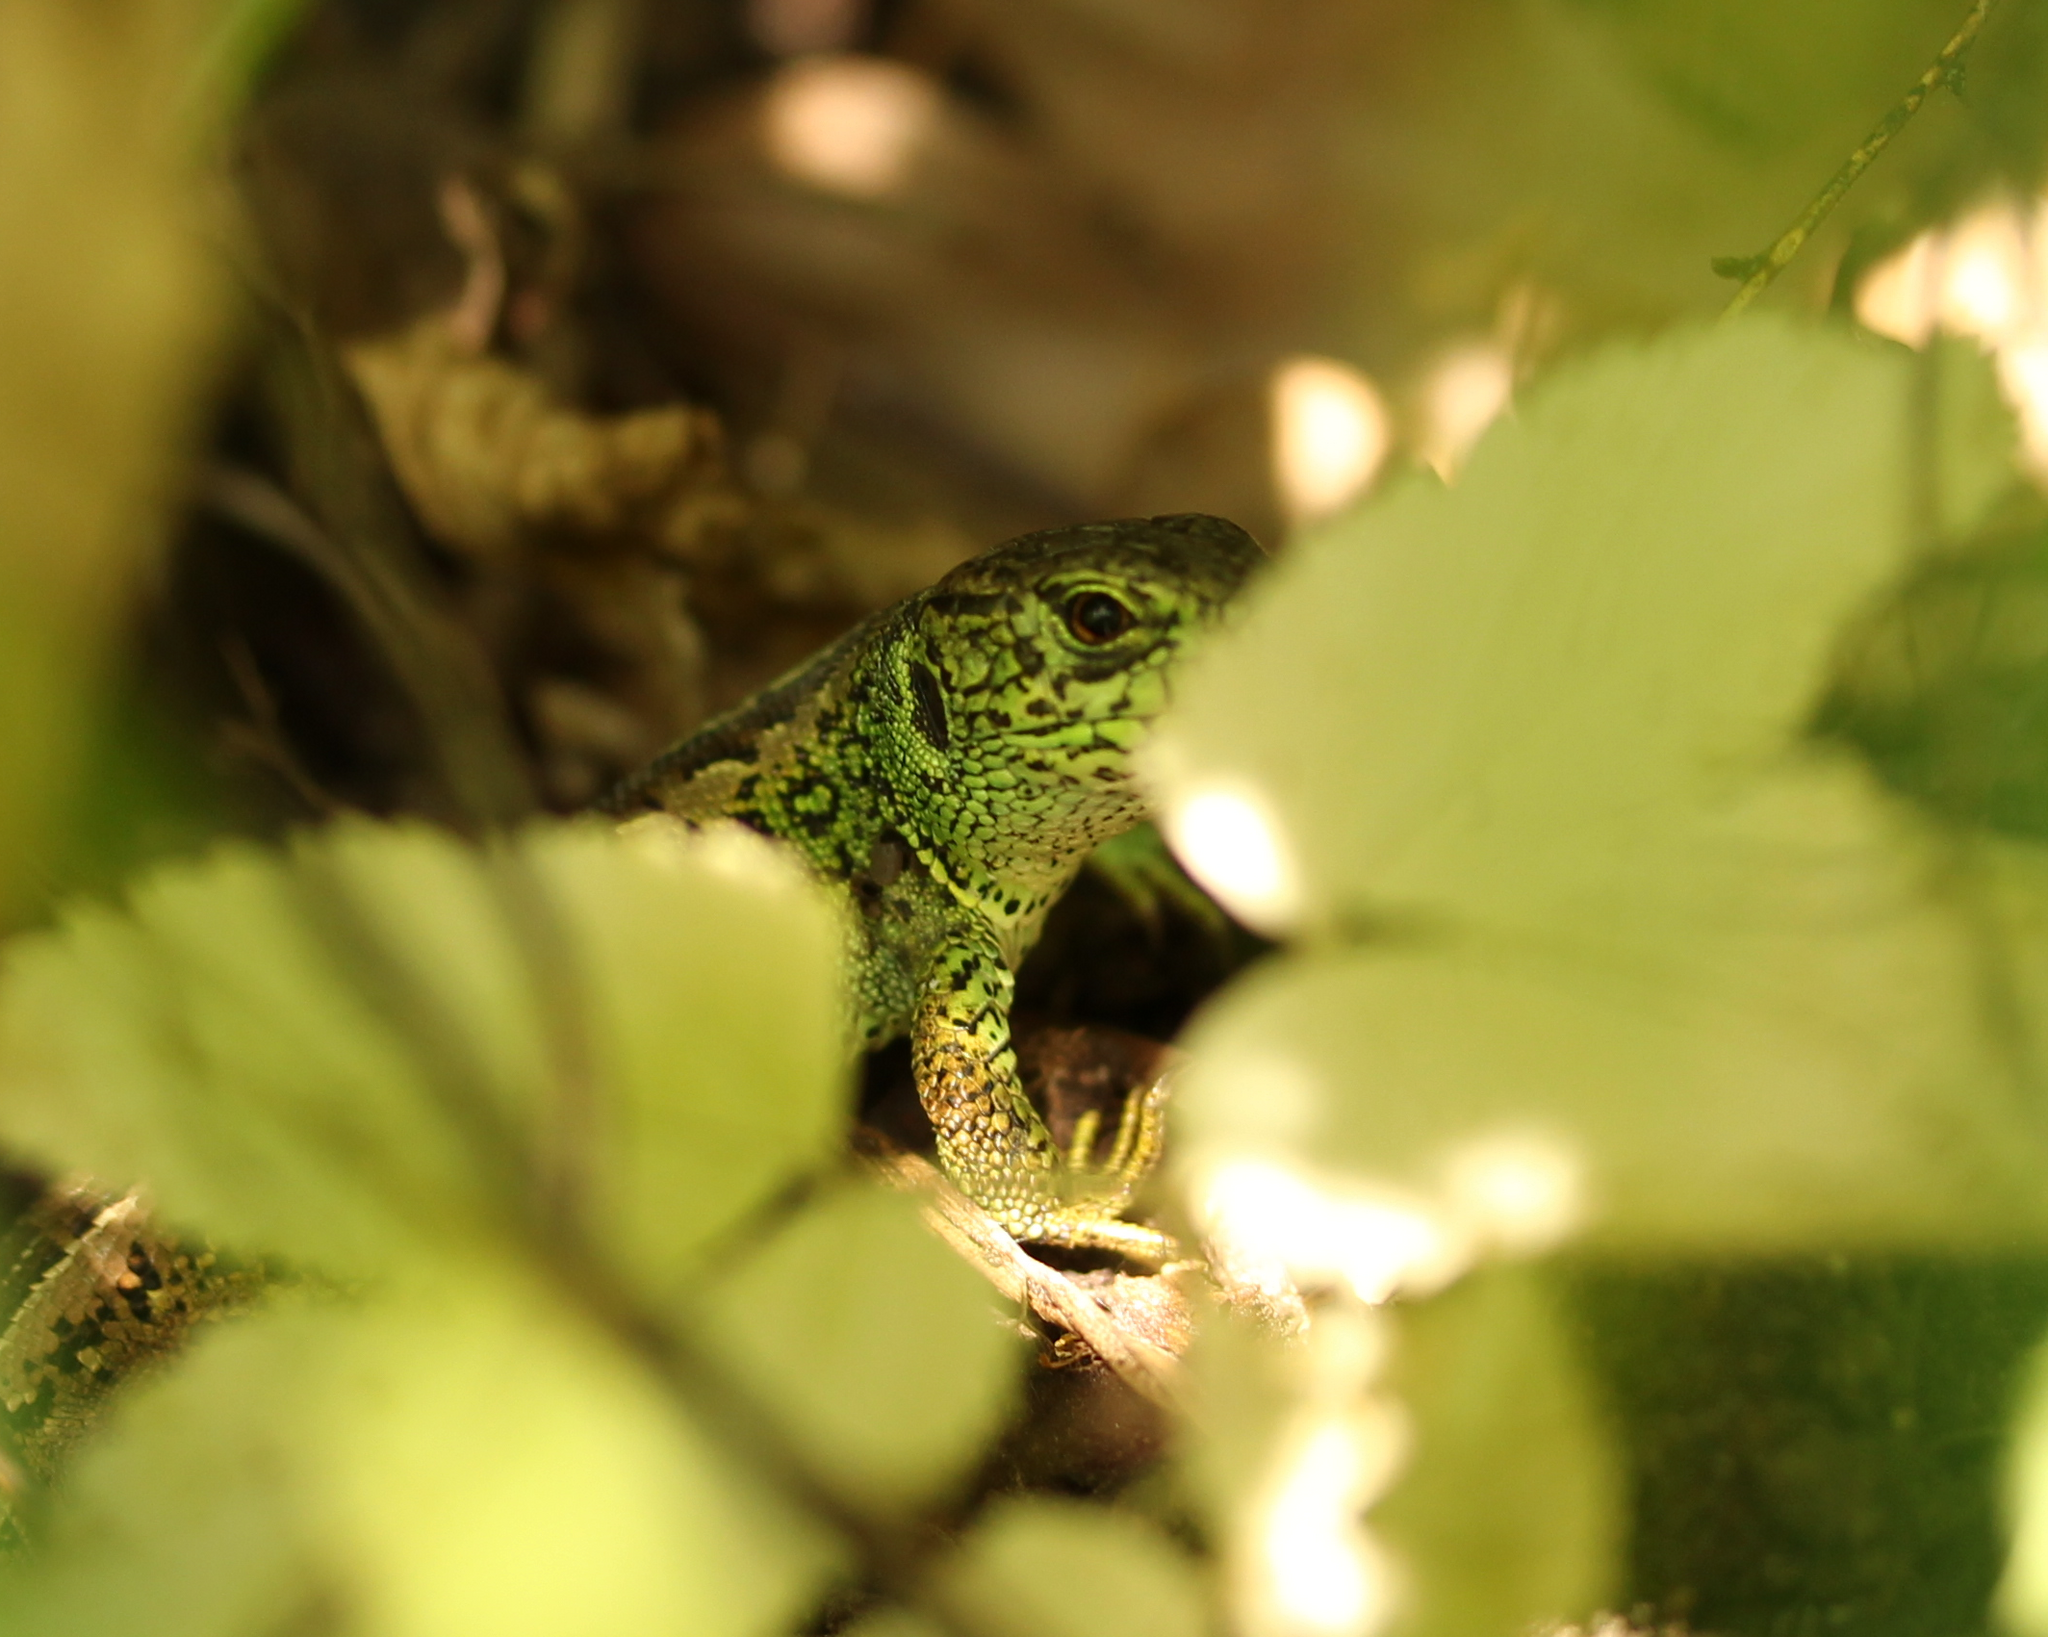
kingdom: Animalia
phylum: Chordata
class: Squamata
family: Lacertidae
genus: Lacerta
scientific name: Lacerta agilis
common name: Sand lizard
